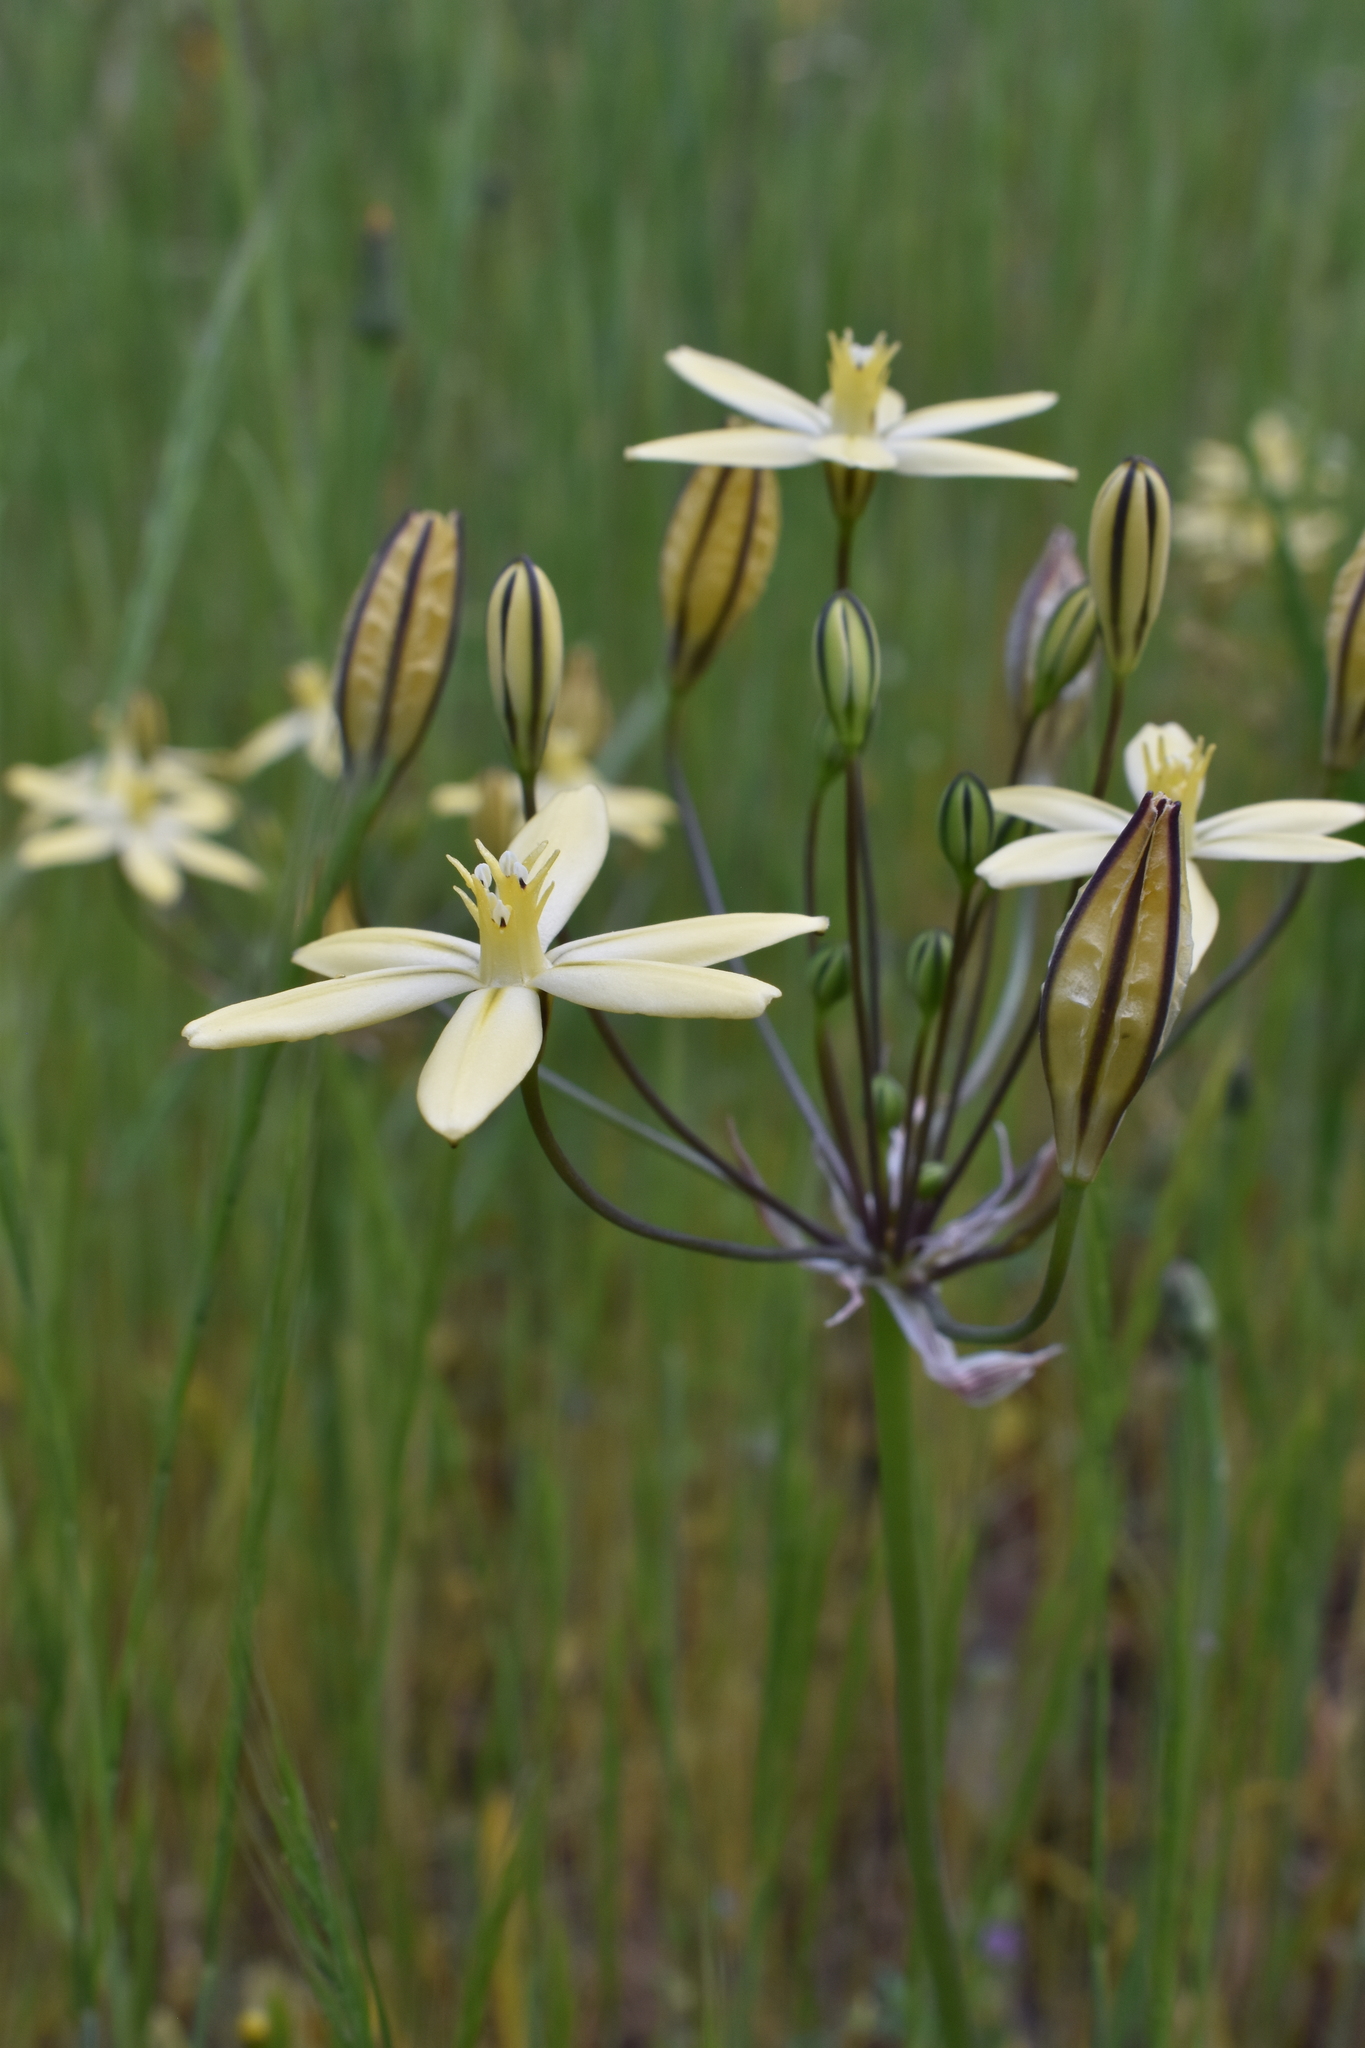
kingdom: Plantae
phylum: Tracheophyta
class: Liliopsida
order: Asparagales
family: Asparagaceae
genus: Triteleia
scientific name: Triteleia ixioides
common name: Yellow-brodiaea
